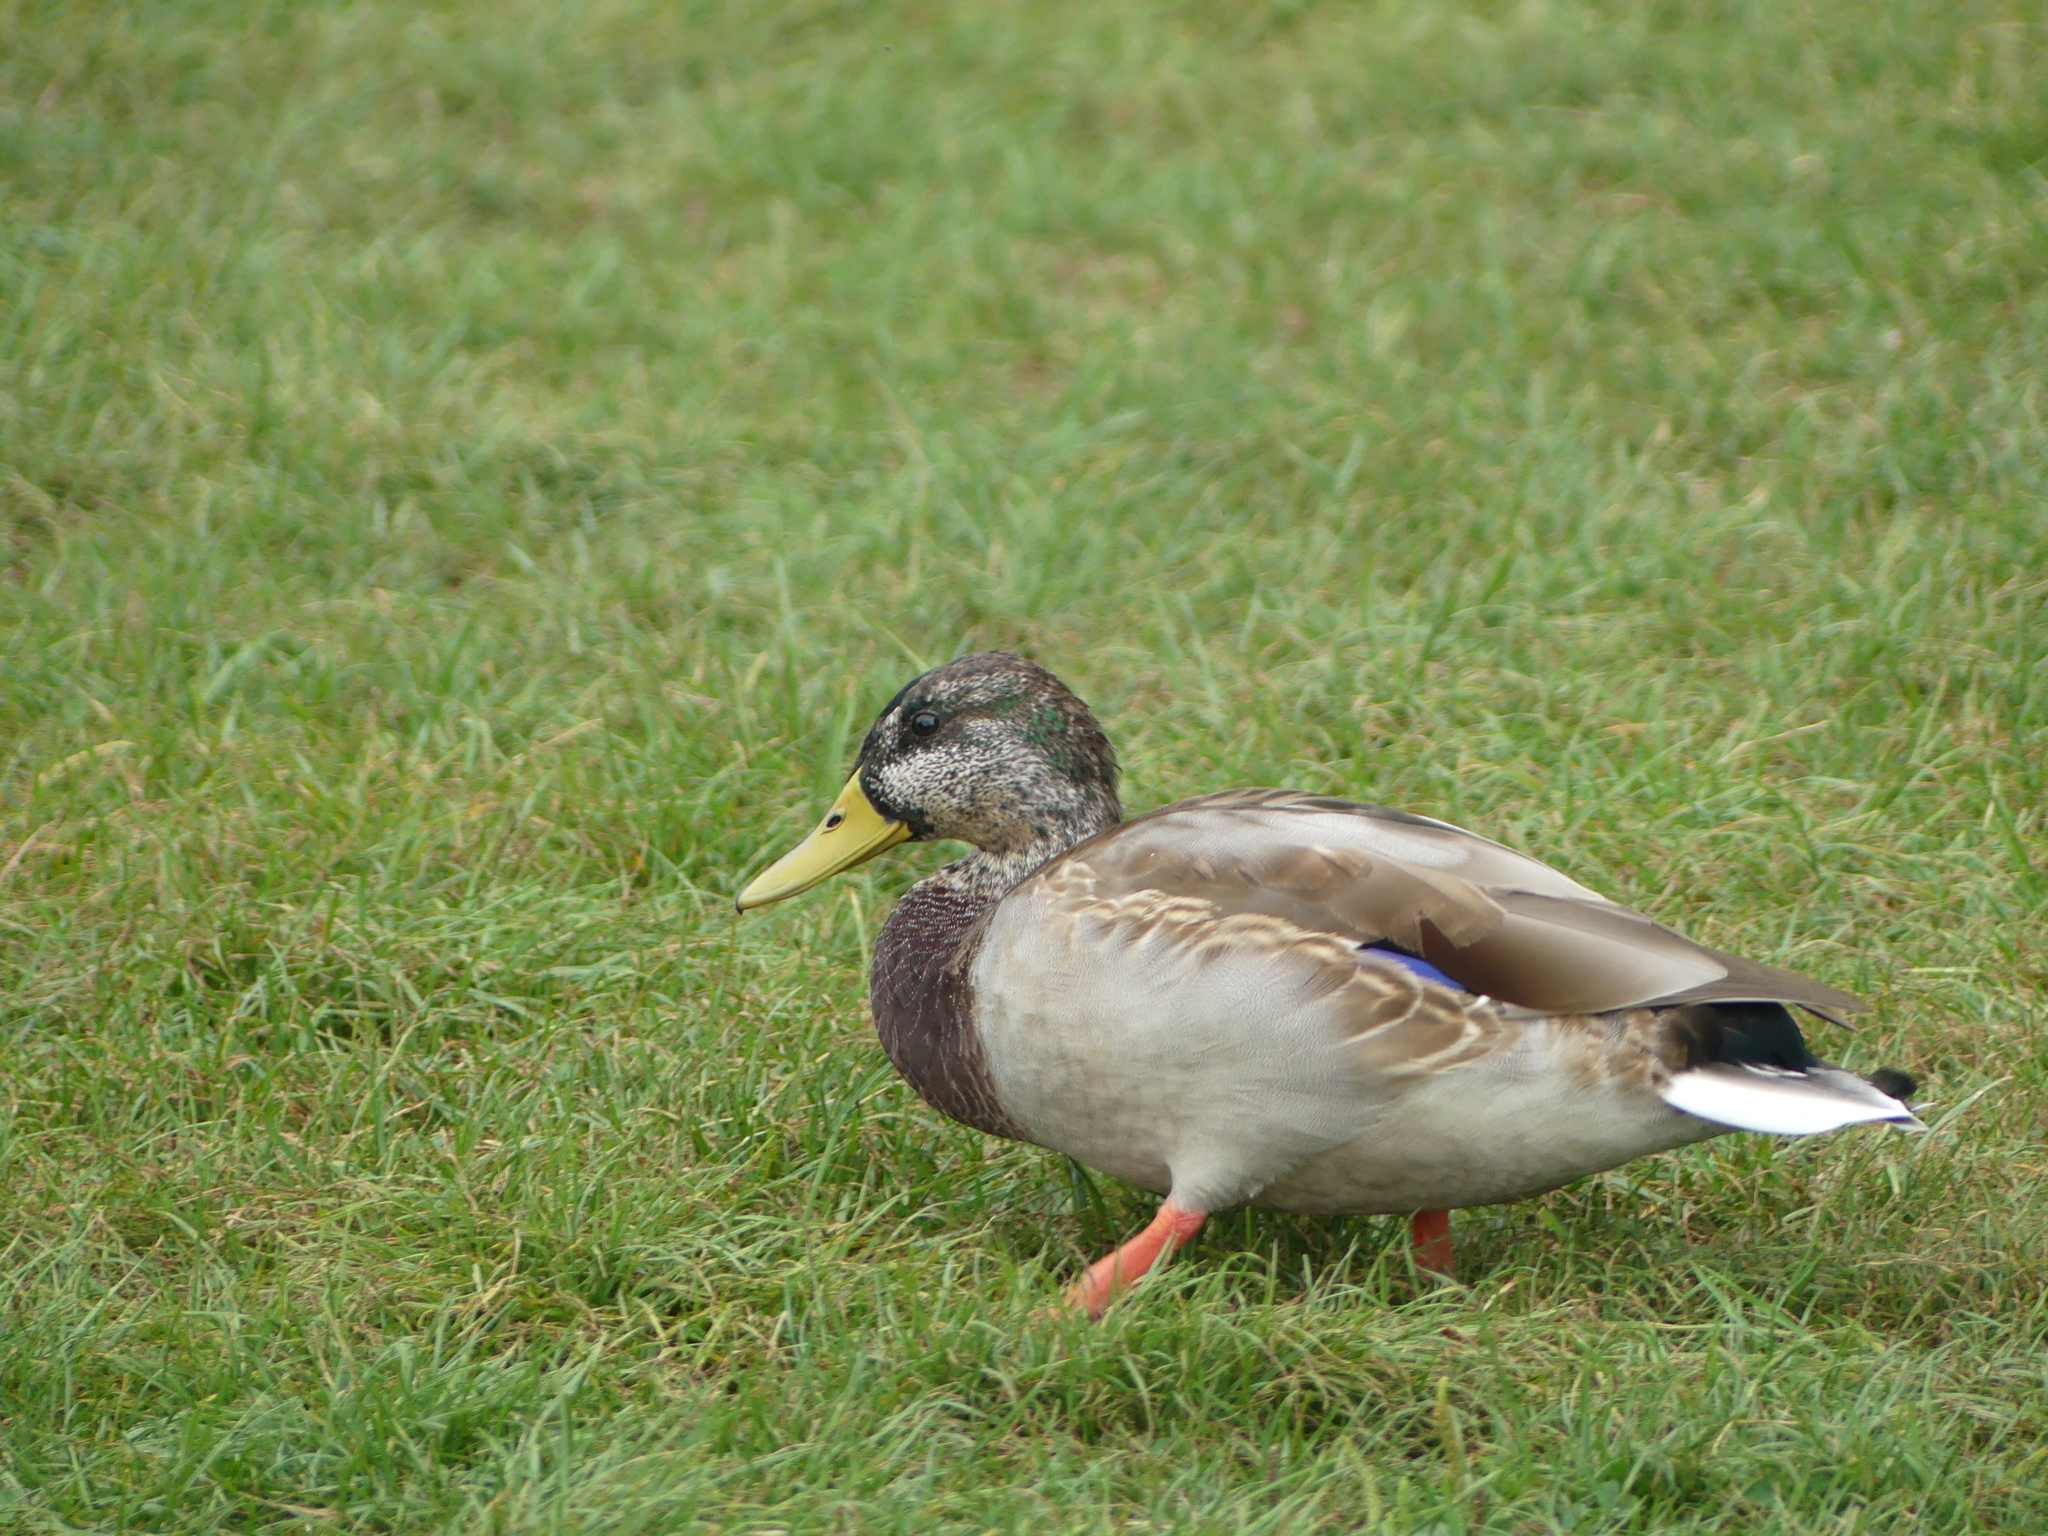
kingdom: Animalia
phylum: Chordata
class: Aves
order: Anseriformes
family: Anatidae
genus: Anas
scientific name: Anas platyrhynchos
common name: Mallard
